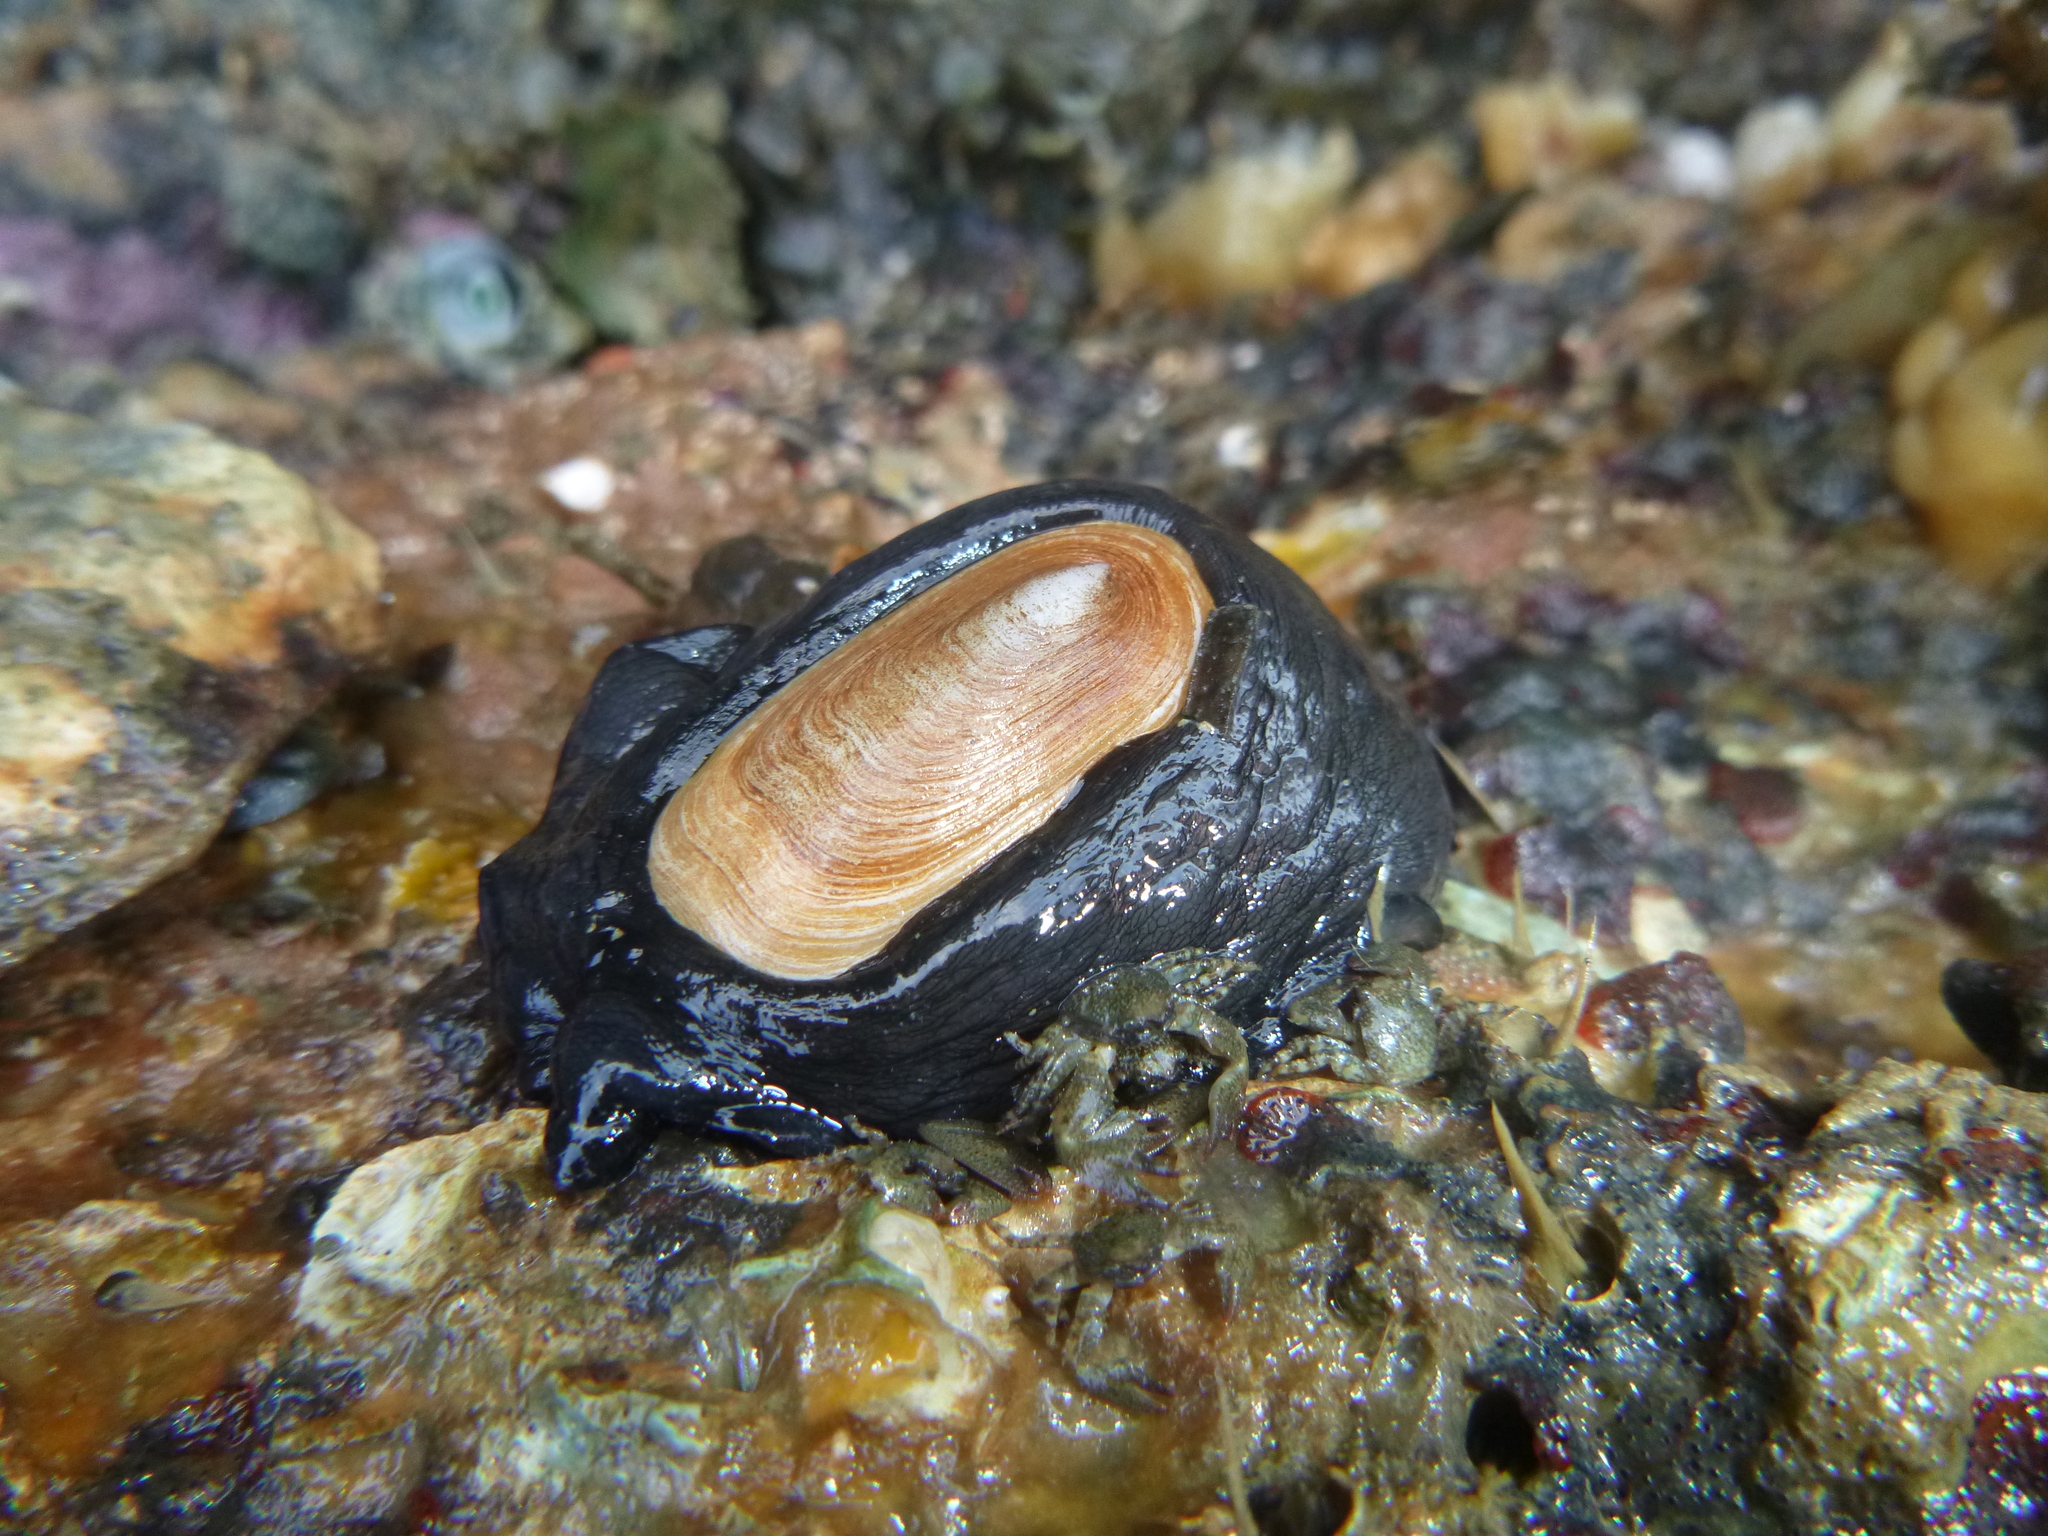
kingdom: Animalia
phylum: Mollusca
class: Gastropoda
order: Lepetellida
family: Fissurellidae
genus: Scutus
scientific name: Scutus breviculus
